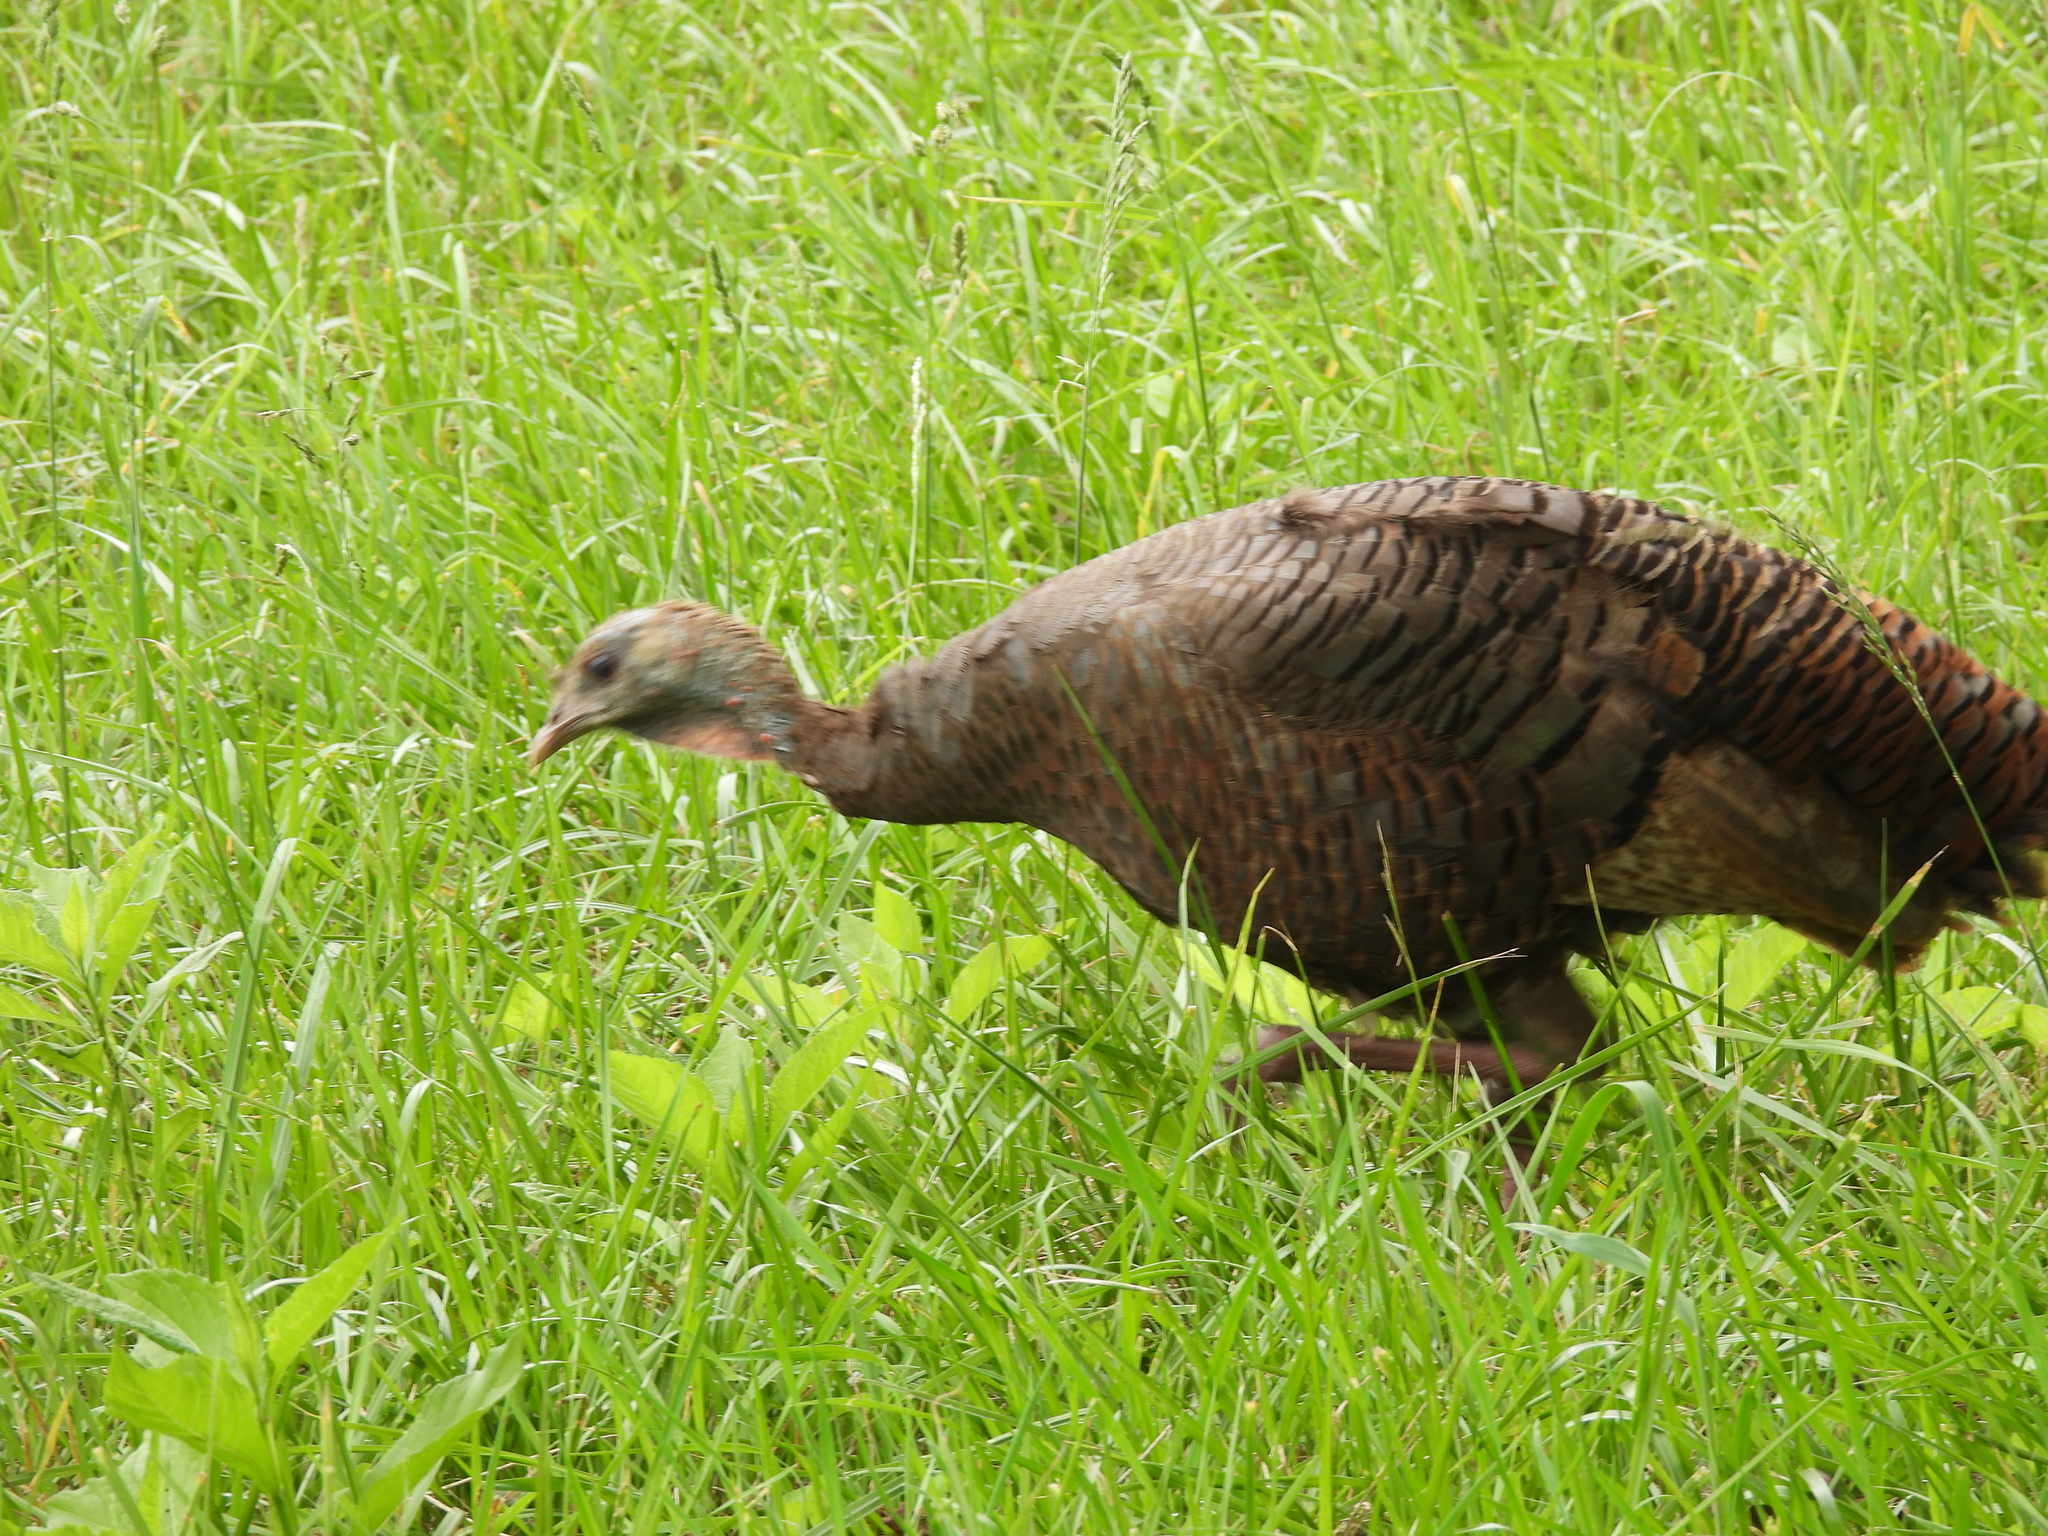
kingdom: Animalia
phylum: Chordata
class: Aves
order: Galliformes
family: Phasianidae
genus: Meleagris
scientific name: Meleagris gallopavo
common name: Wild turkey
